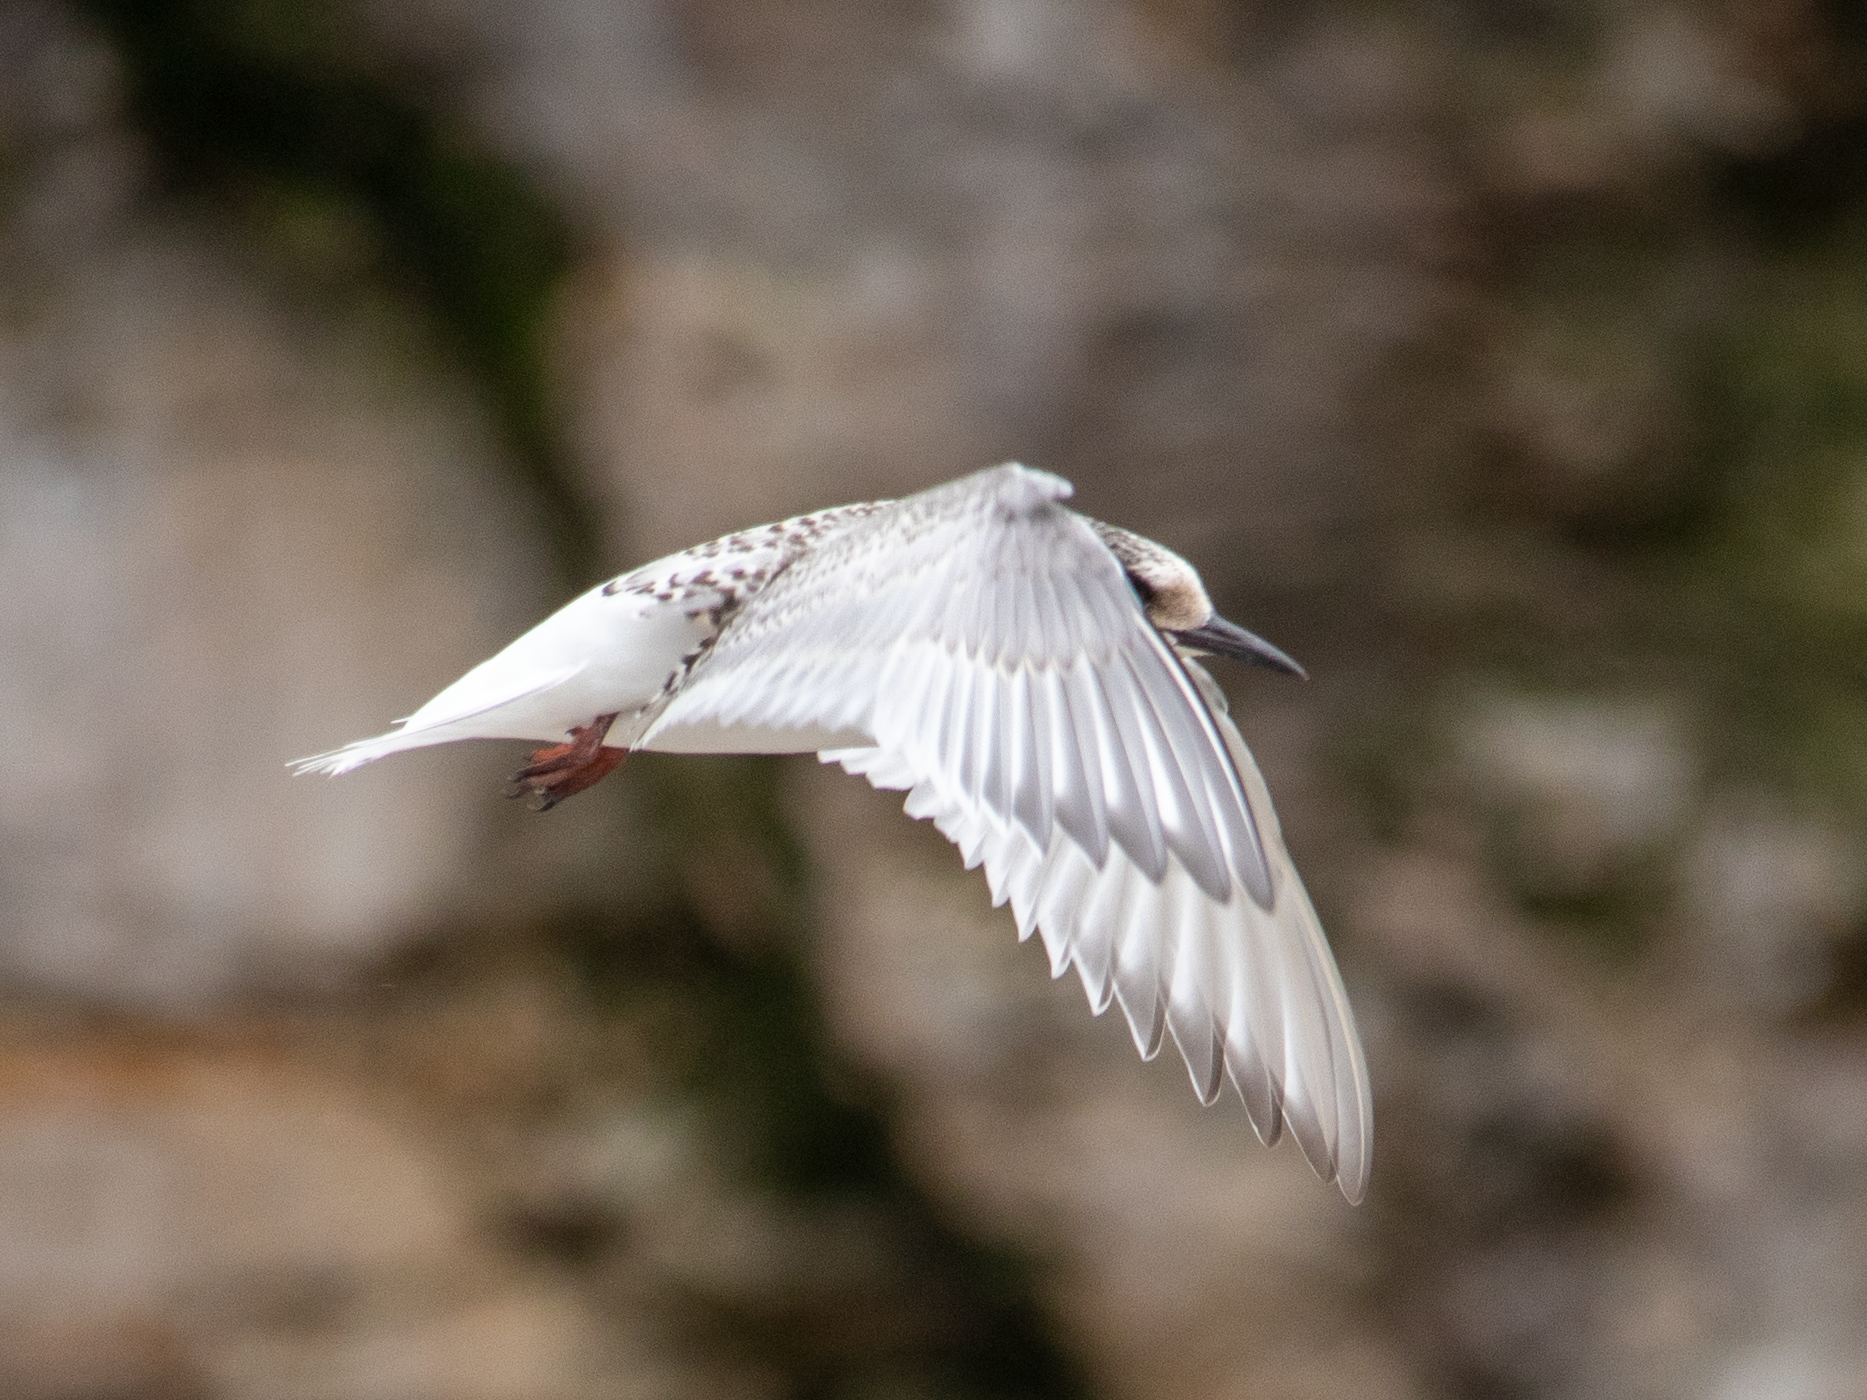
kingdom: Animalia
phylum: Chordata
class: Aves
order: Charadriiformes
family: Laridae
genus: Sterna
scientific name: Sterna vittata
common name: Antarctic tern
